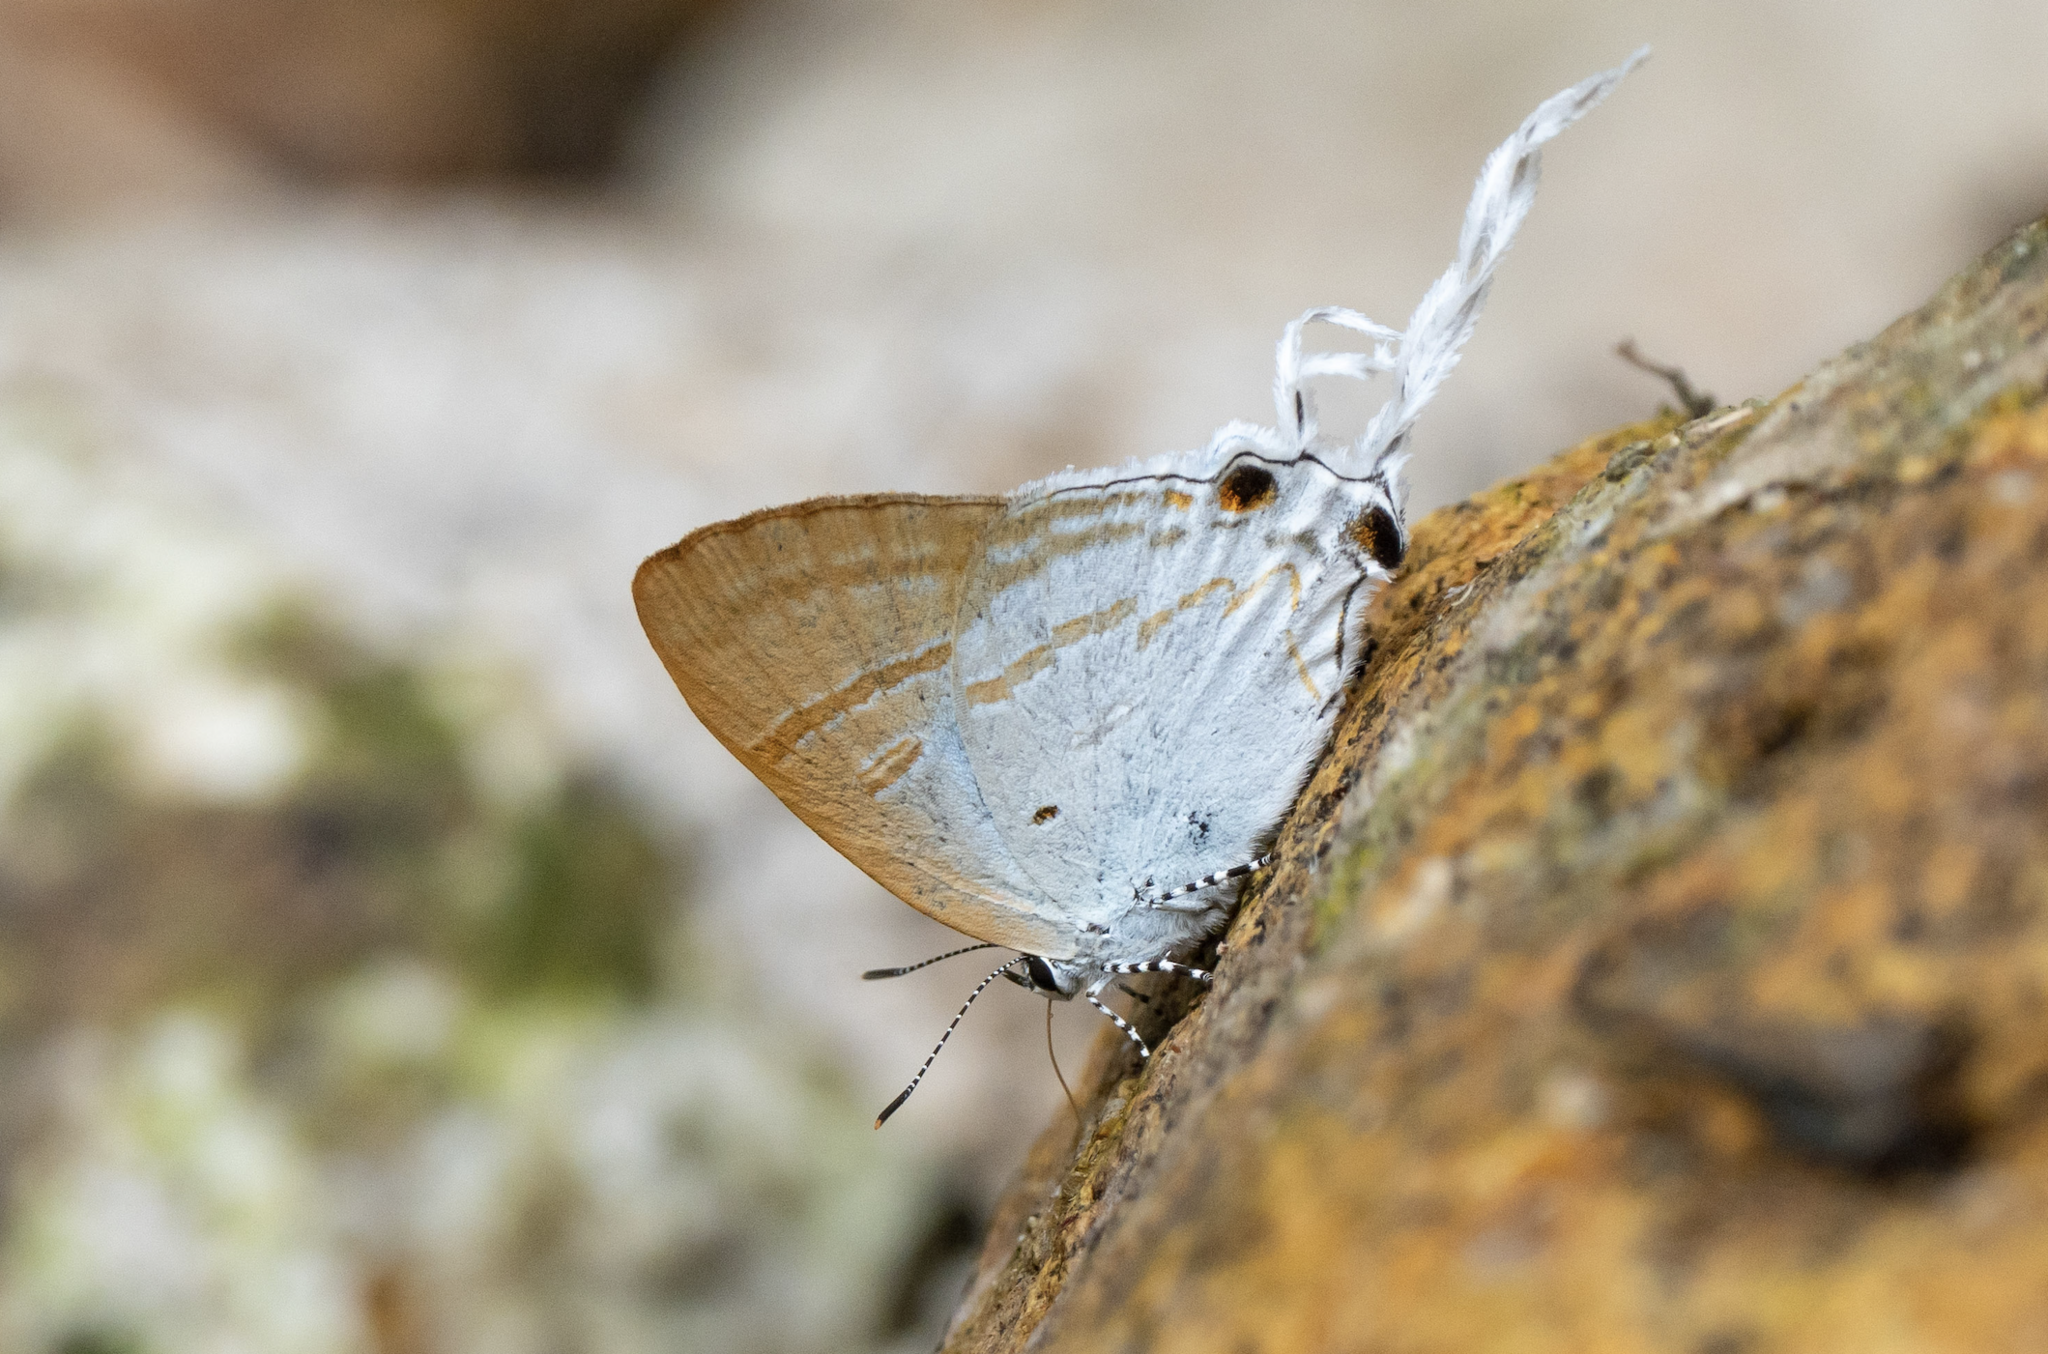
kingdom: Animalia
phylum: Arthropoda
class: Insecta
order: Lepidoptera
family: Lycaenidae
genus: Zeltus
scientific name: Zeltus amasa
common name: Fluffy tit
